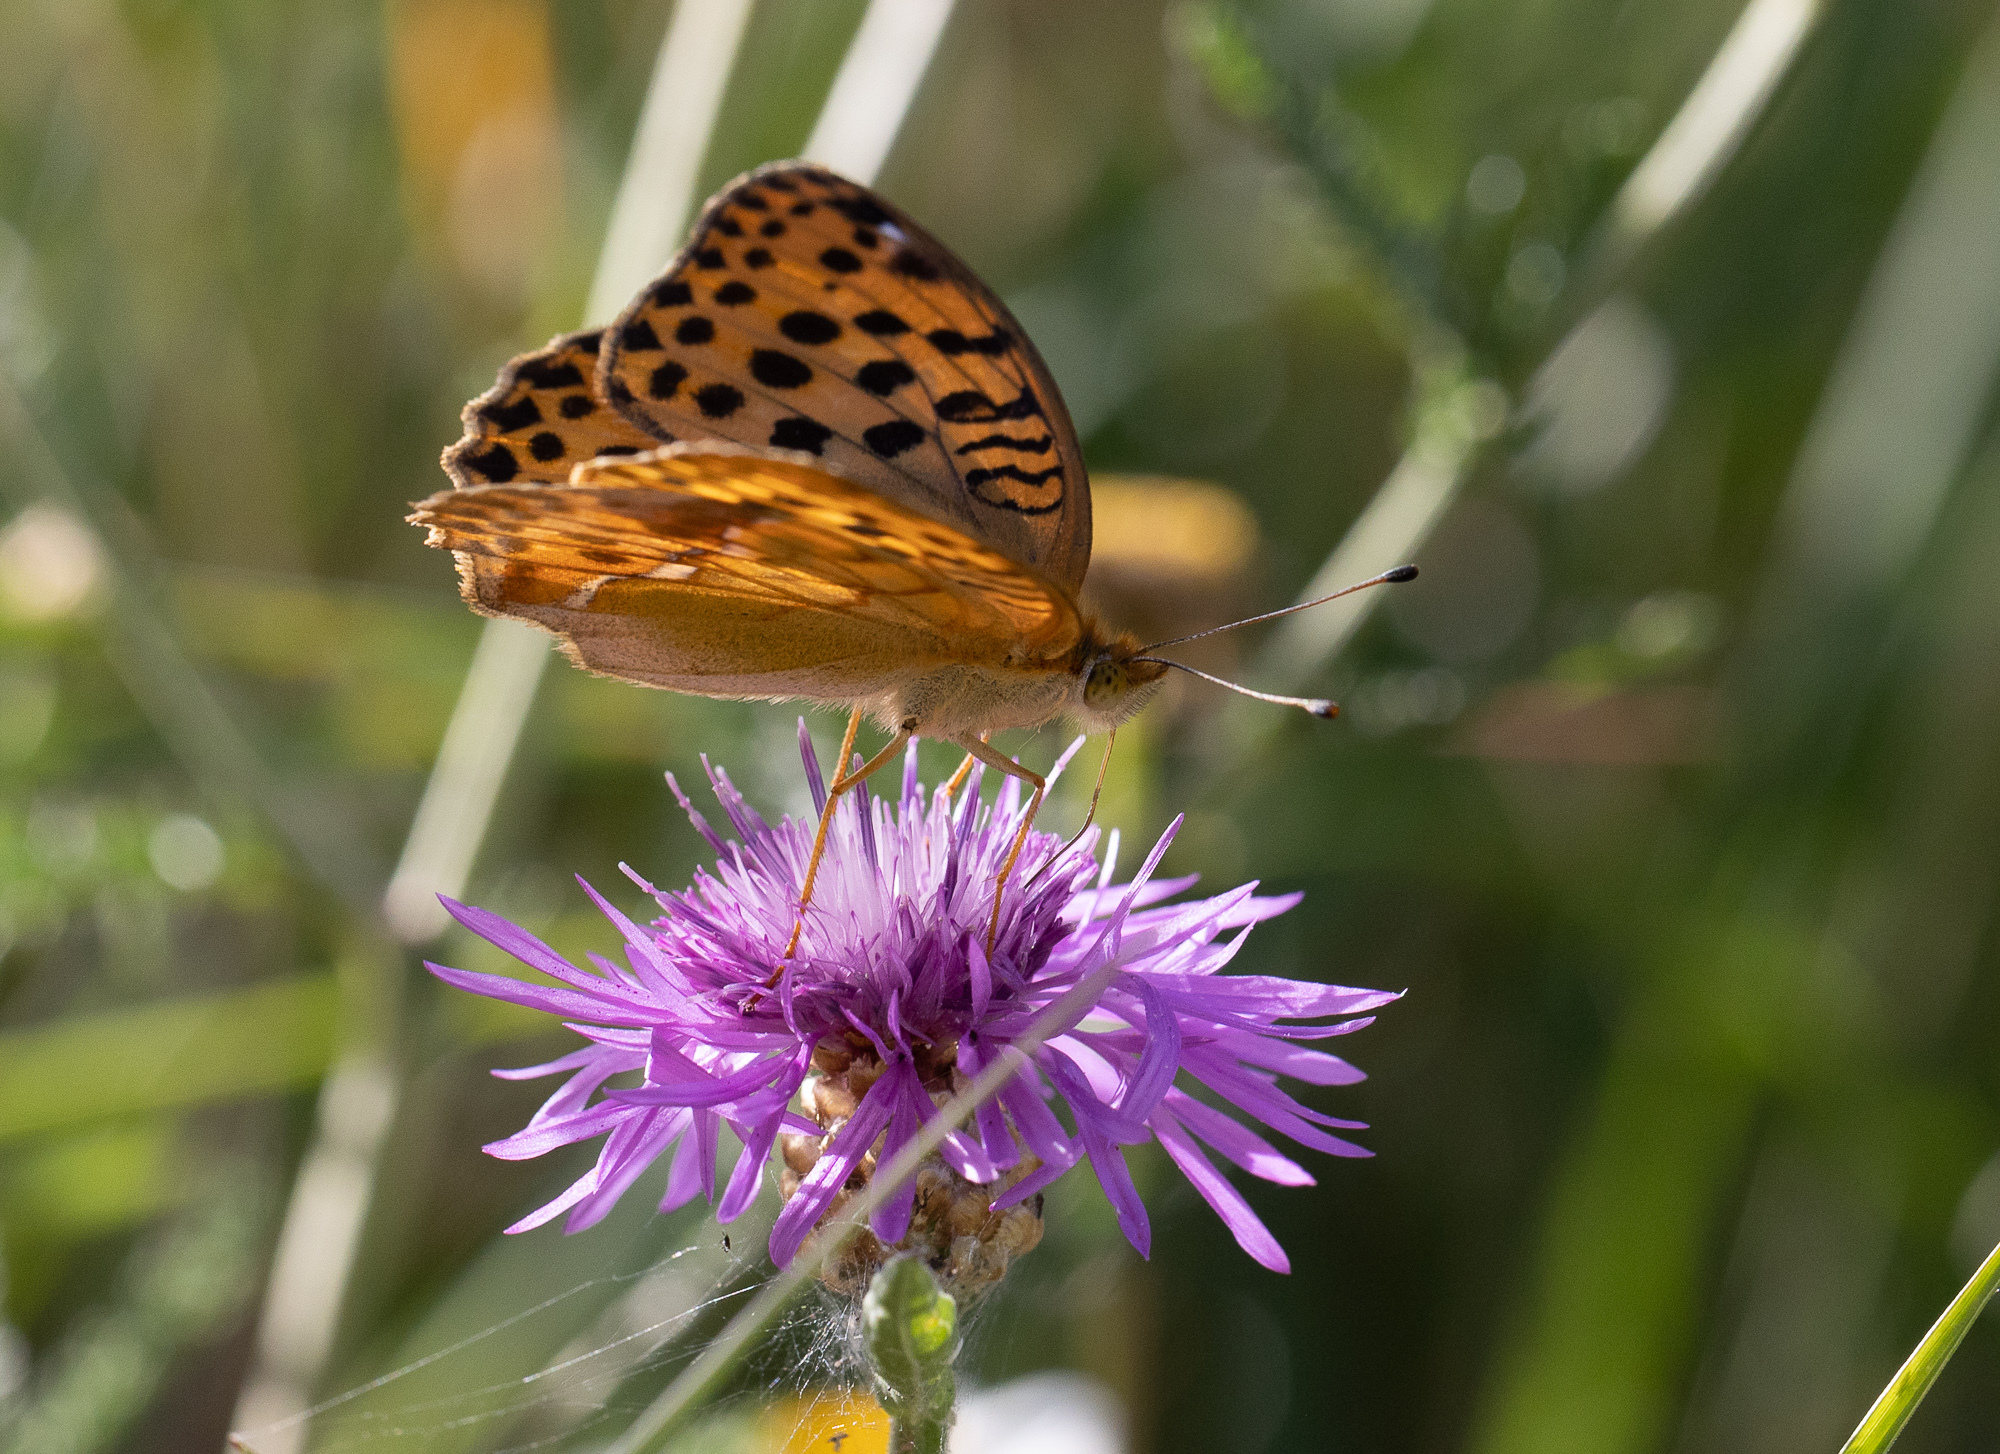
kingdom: Animalia
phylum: Arthropoda
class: Insecta
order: Lepidoptera
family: Nymphalidae
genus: Argyronome
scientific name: Argyronome laodice
